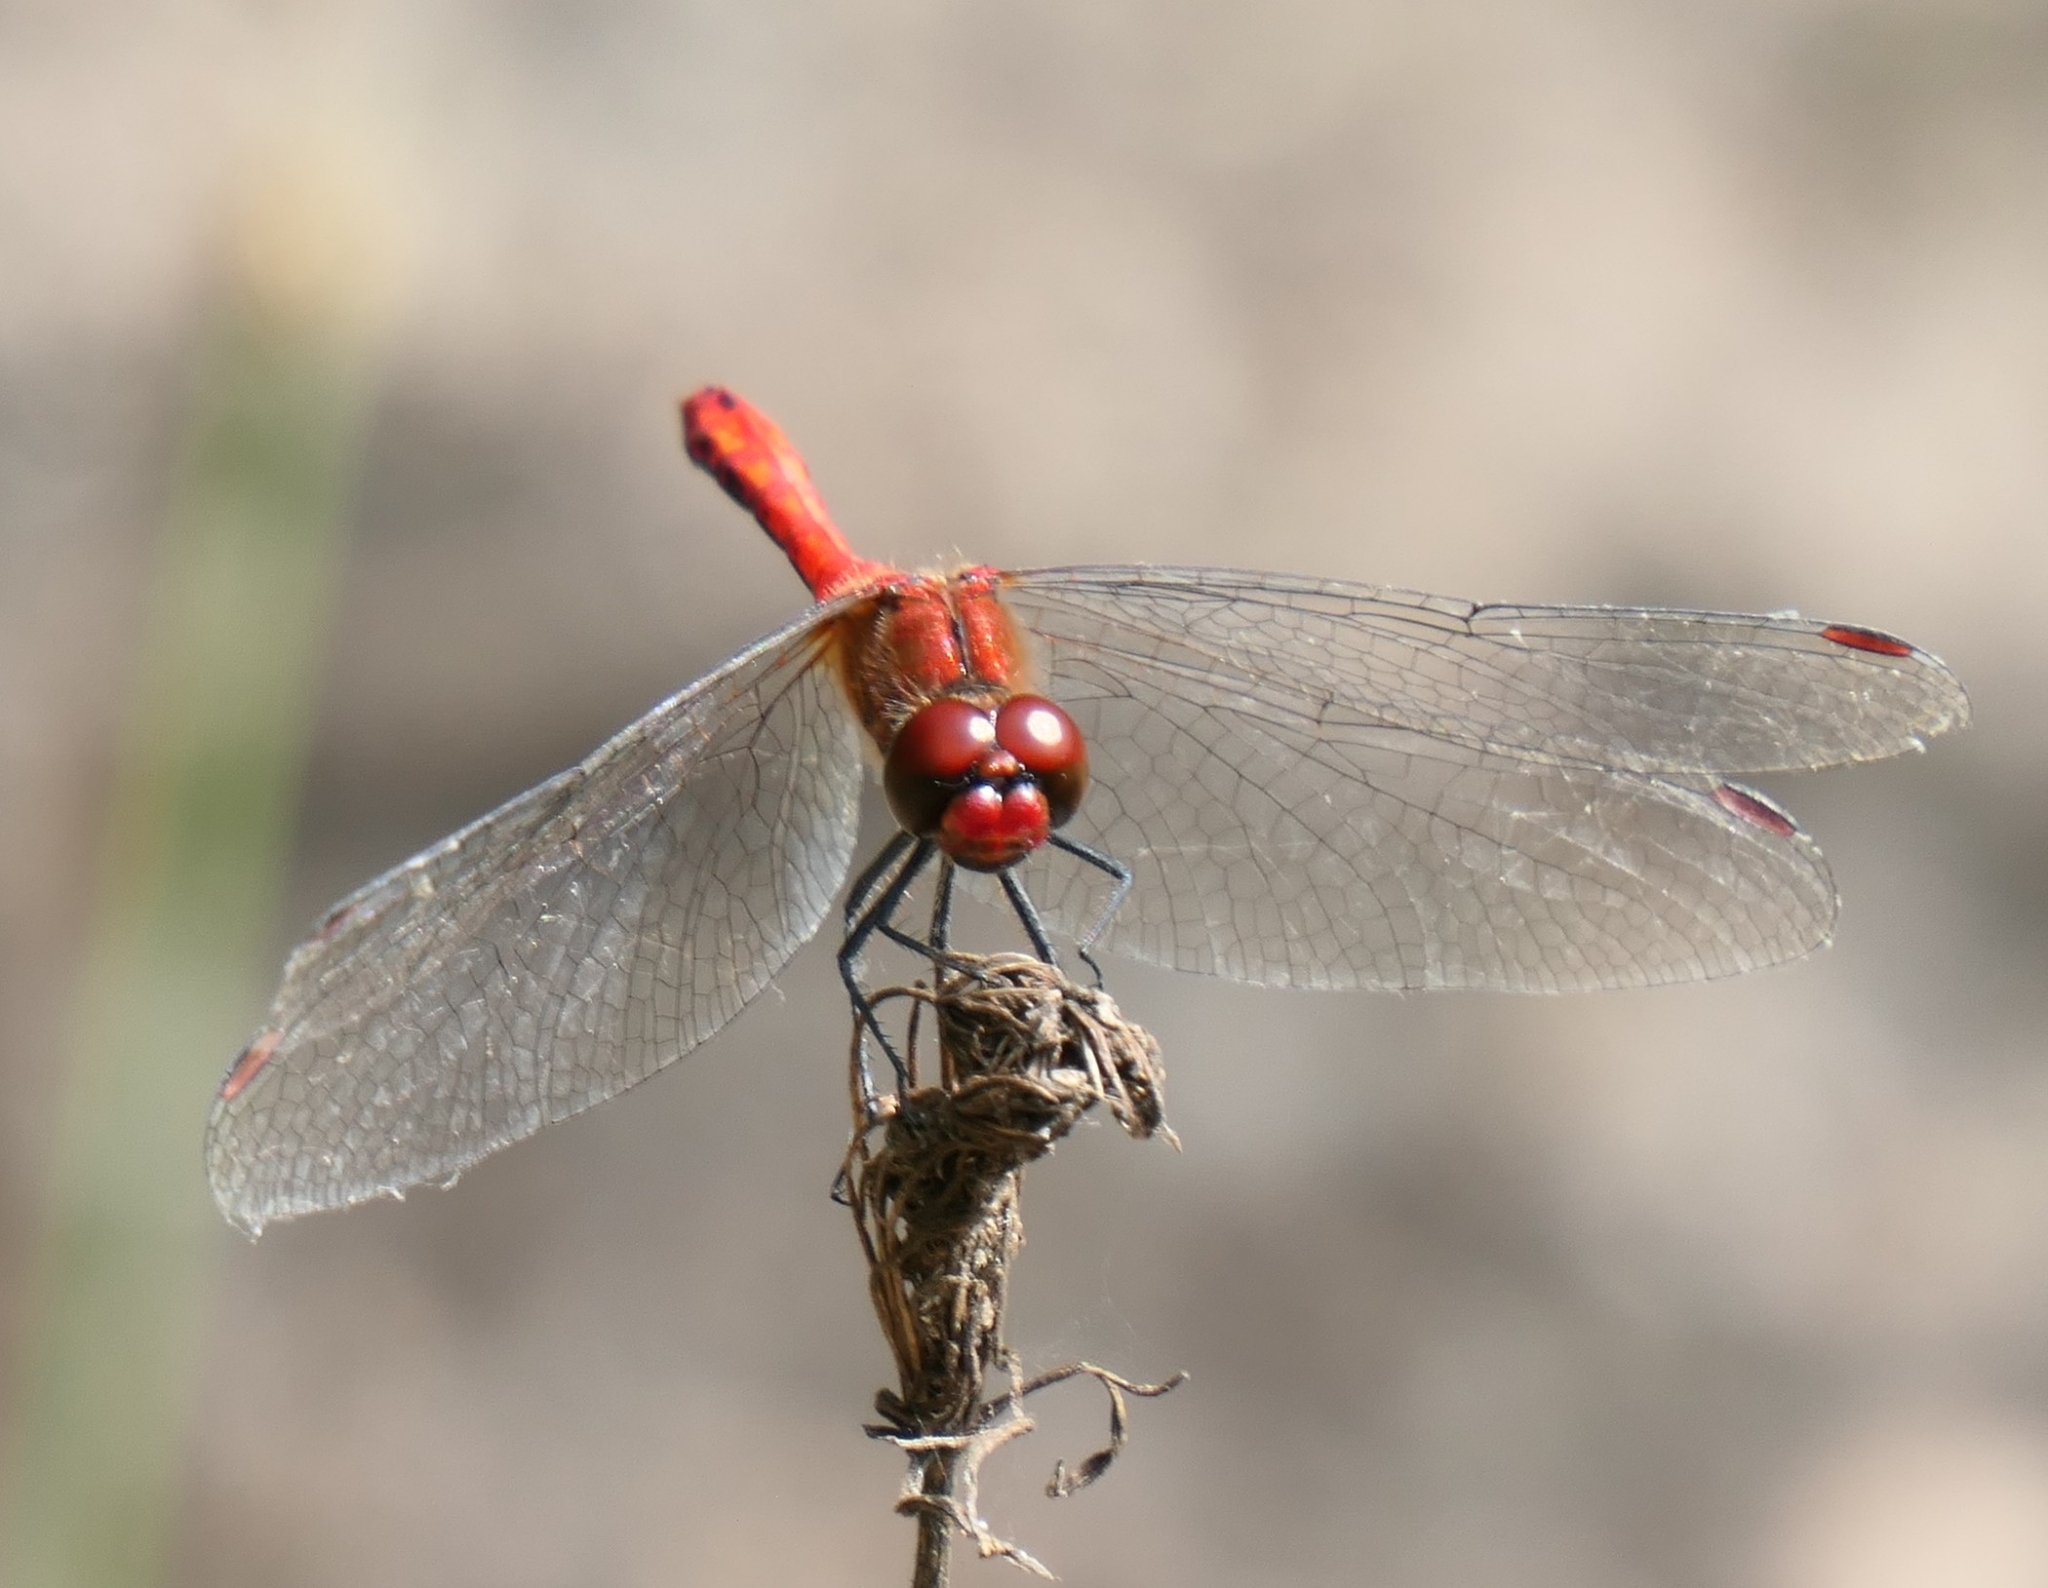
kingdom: Animalia
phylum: Arthropoda
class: Insecta
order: Odonata
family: Libellulidae
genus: Sympetrum
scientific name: Sympetrum sanguineum
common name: Ruddy darter
